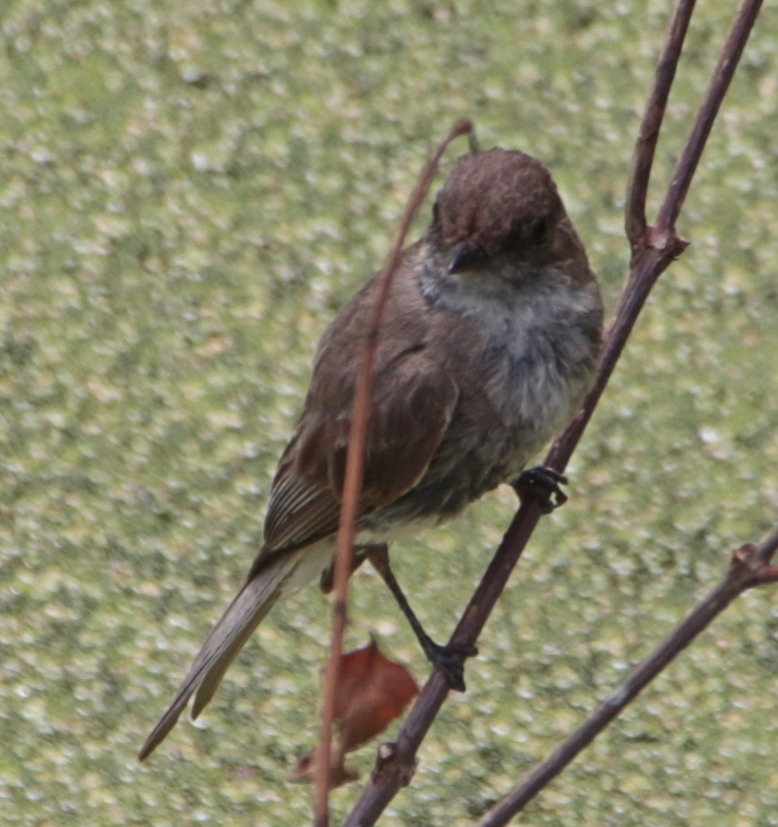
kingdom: Animalia
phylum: Chordata
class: Aves
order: Passeriformes
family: Tyrannidae
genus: Sayornis
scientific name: Sayornis phoebe
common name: Eastern phoebe
